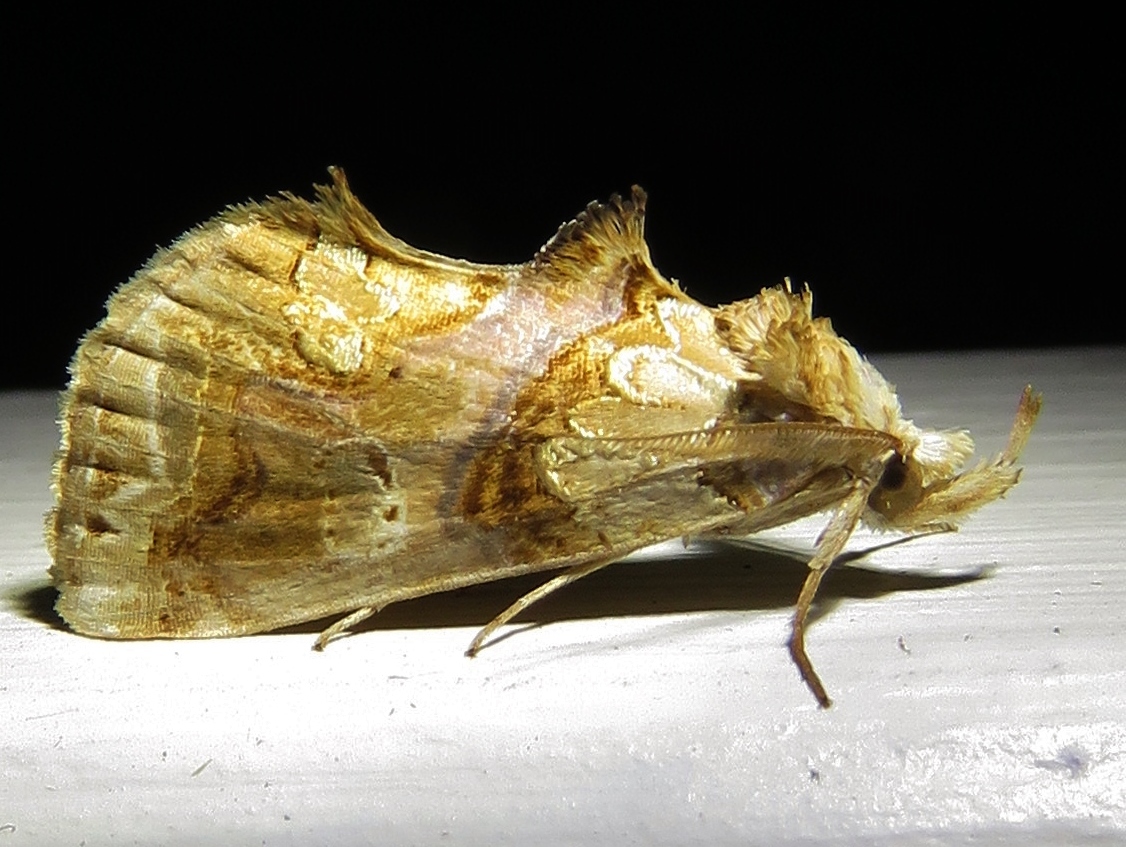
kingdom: Animalia
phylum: Arthropoda
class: Insecta
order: Lepidoptera
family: Erebidae
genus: Plusiodonta
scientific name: Plusiodonta compressipalpis
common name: Moonseed moth
